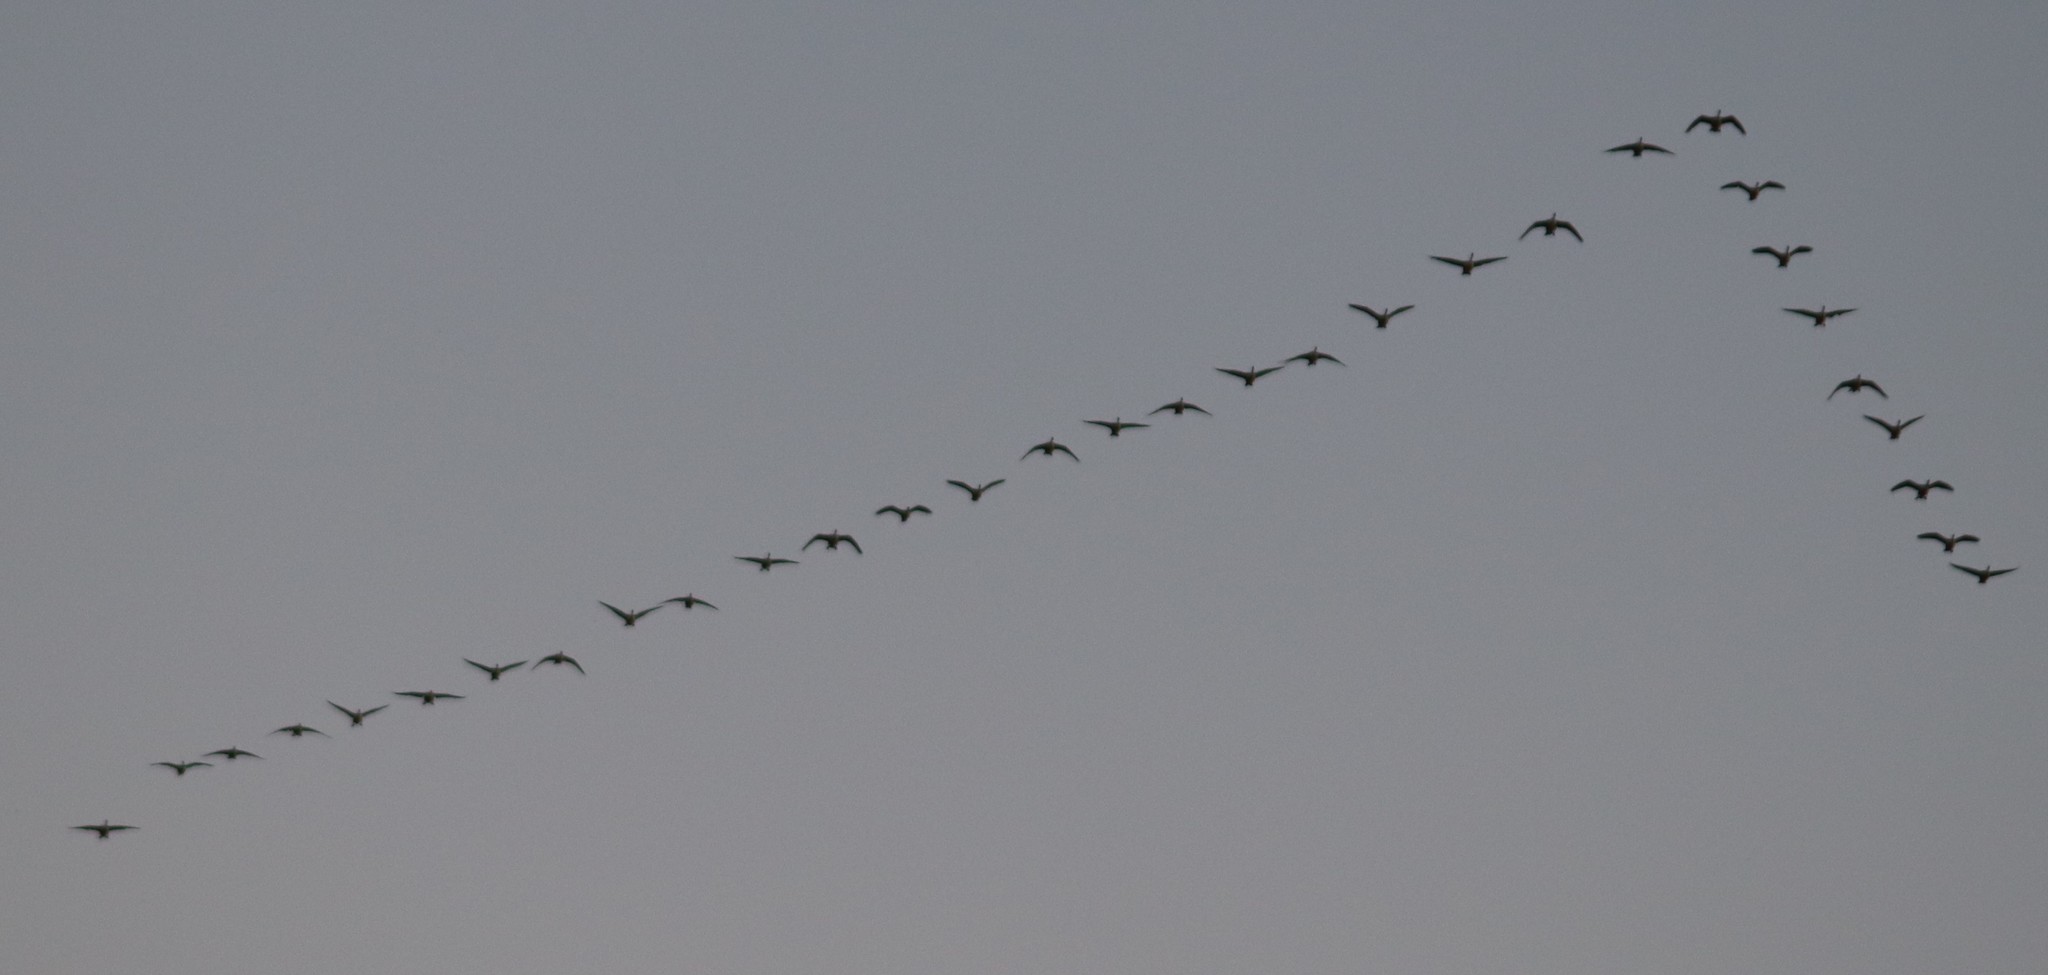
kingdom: Animalia
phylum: Chordata
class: Aves
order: Anseriformes
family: Anatidae
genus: Branta
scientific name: Branta canadensis
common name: Canada goose
